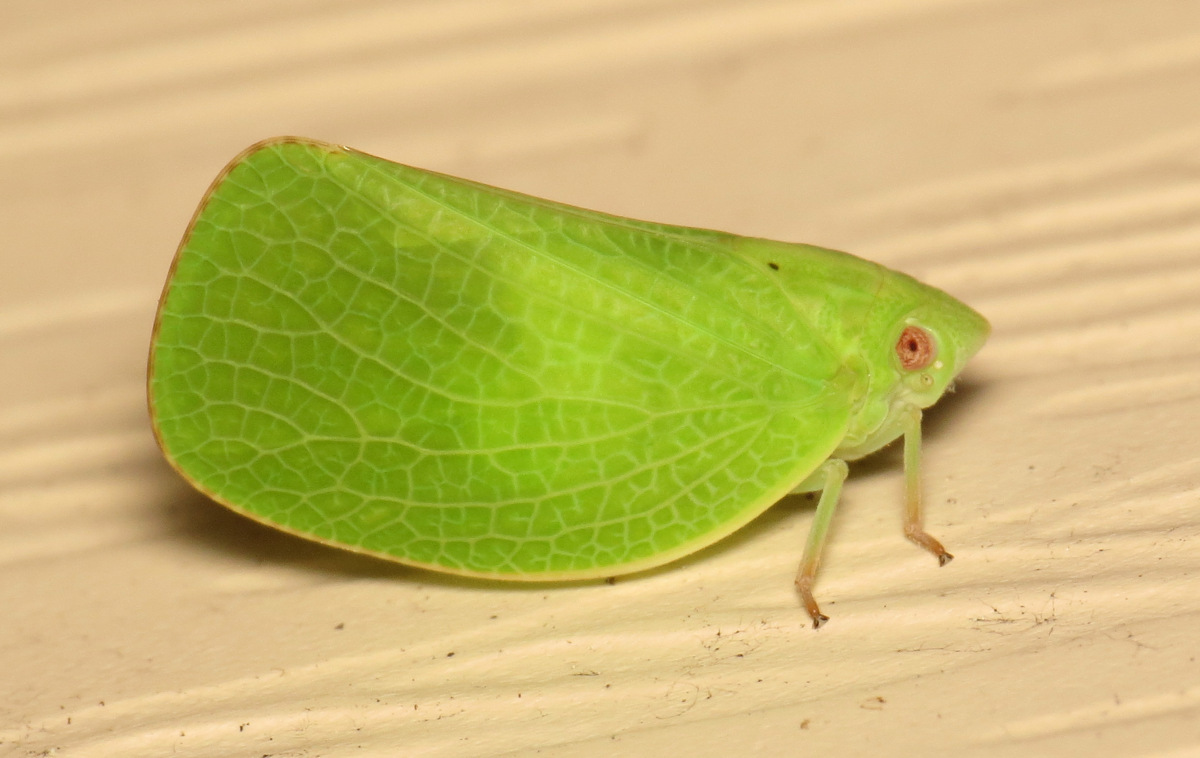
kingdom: Animalia
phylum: Arthropoda
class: Insecta
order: Hemiptera
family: Acanaloniidae
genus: Acanalonia
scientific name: Acanalonia conica
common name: Green cone-headed planthopper
